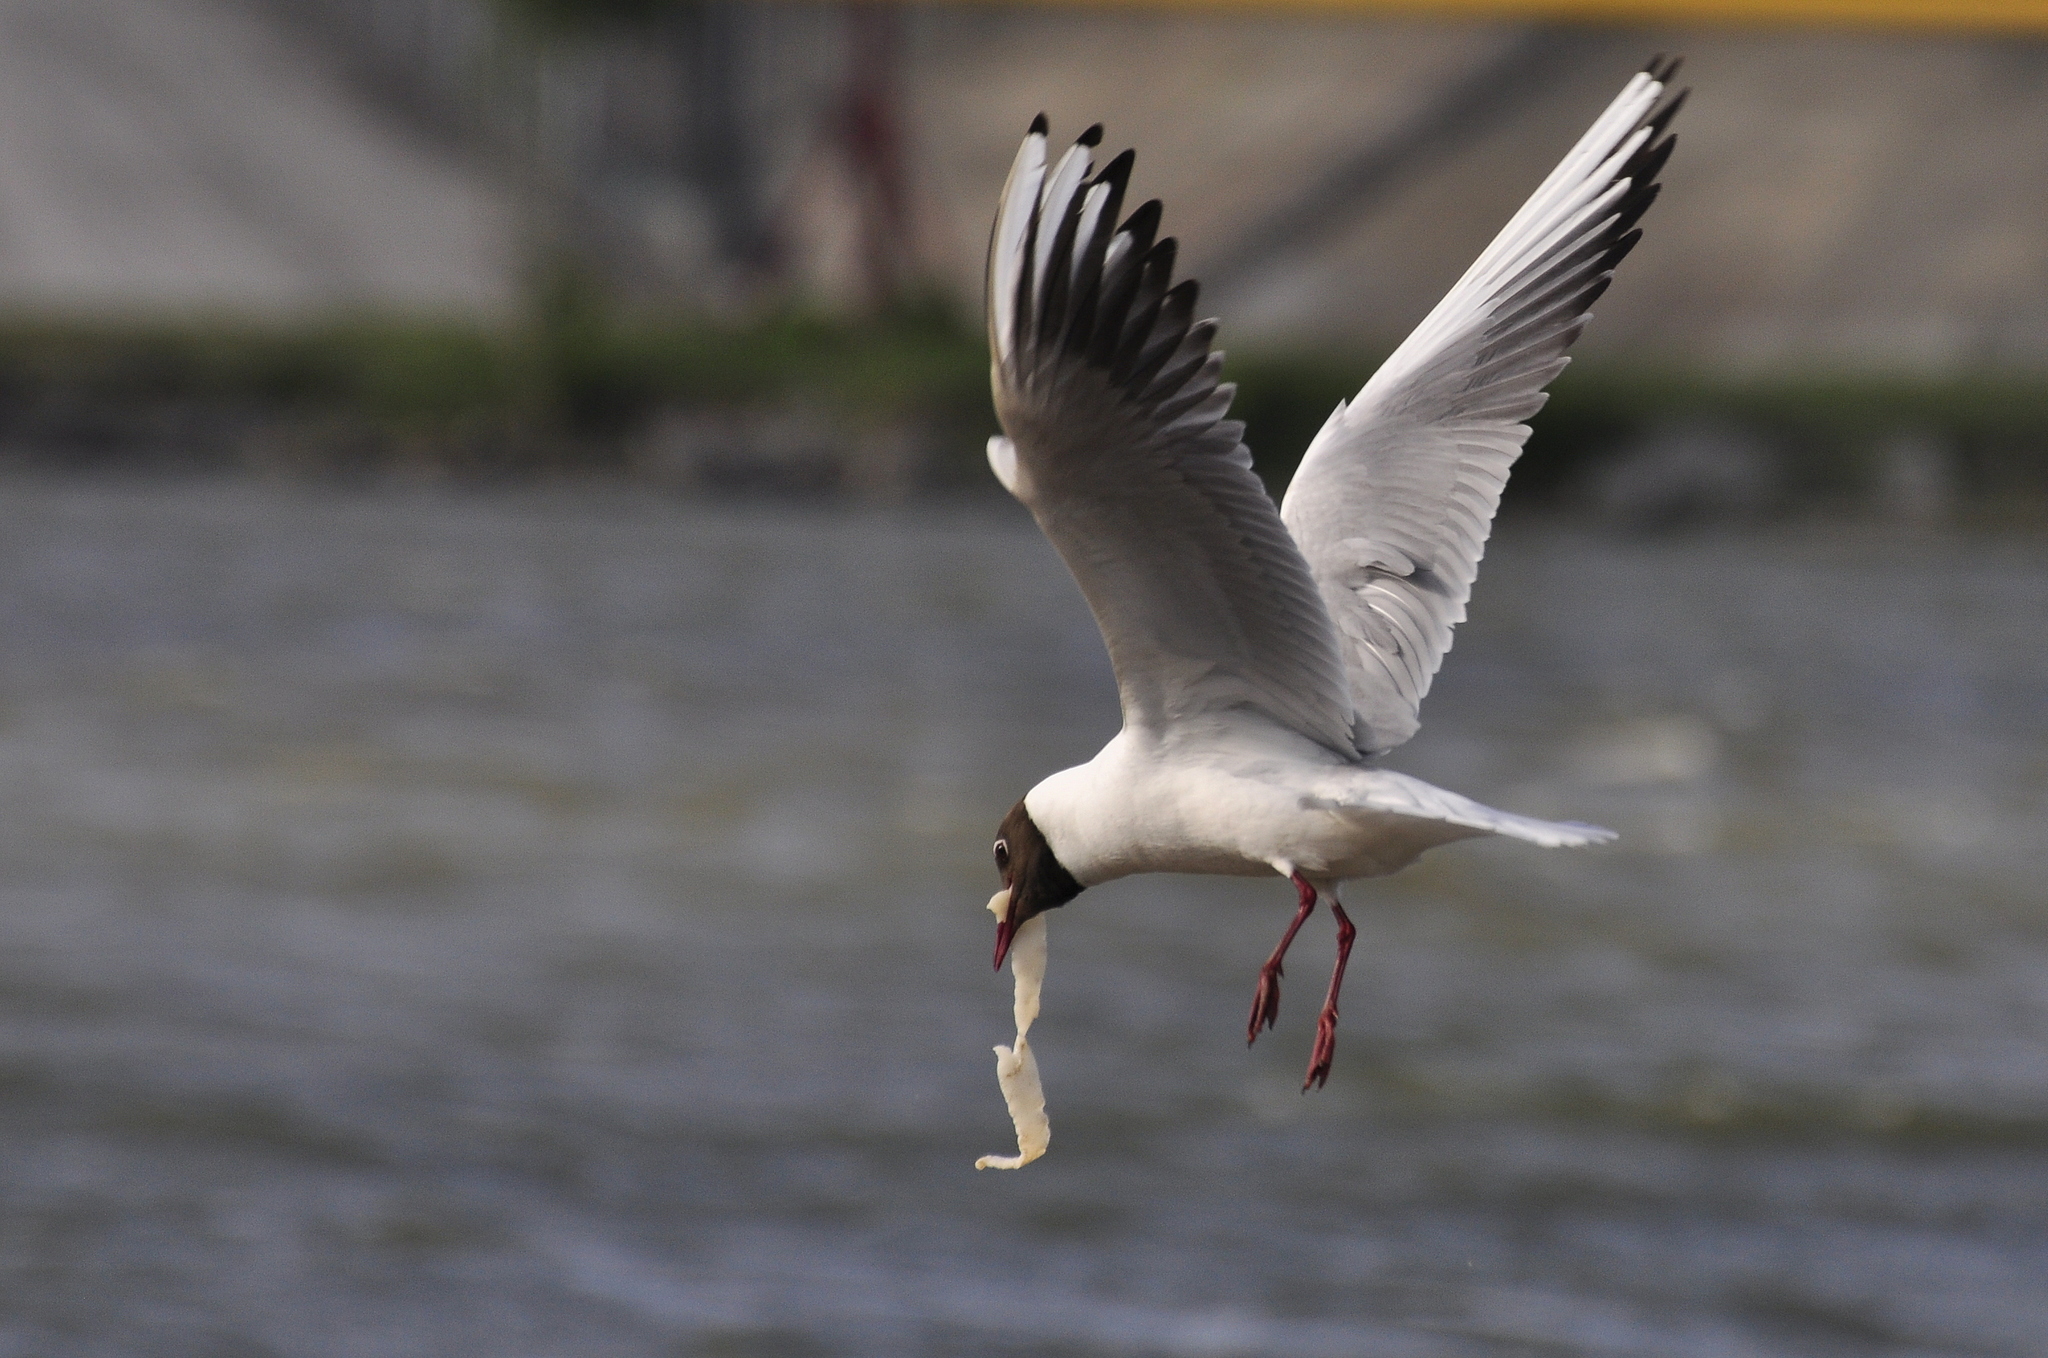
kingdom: Animalia
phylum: Chordata
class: Aves
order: Charadriiformes
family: Laridae
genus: Chroicocephalus
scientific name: Chroicocephalus ridibundus
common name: Black-headed gull
